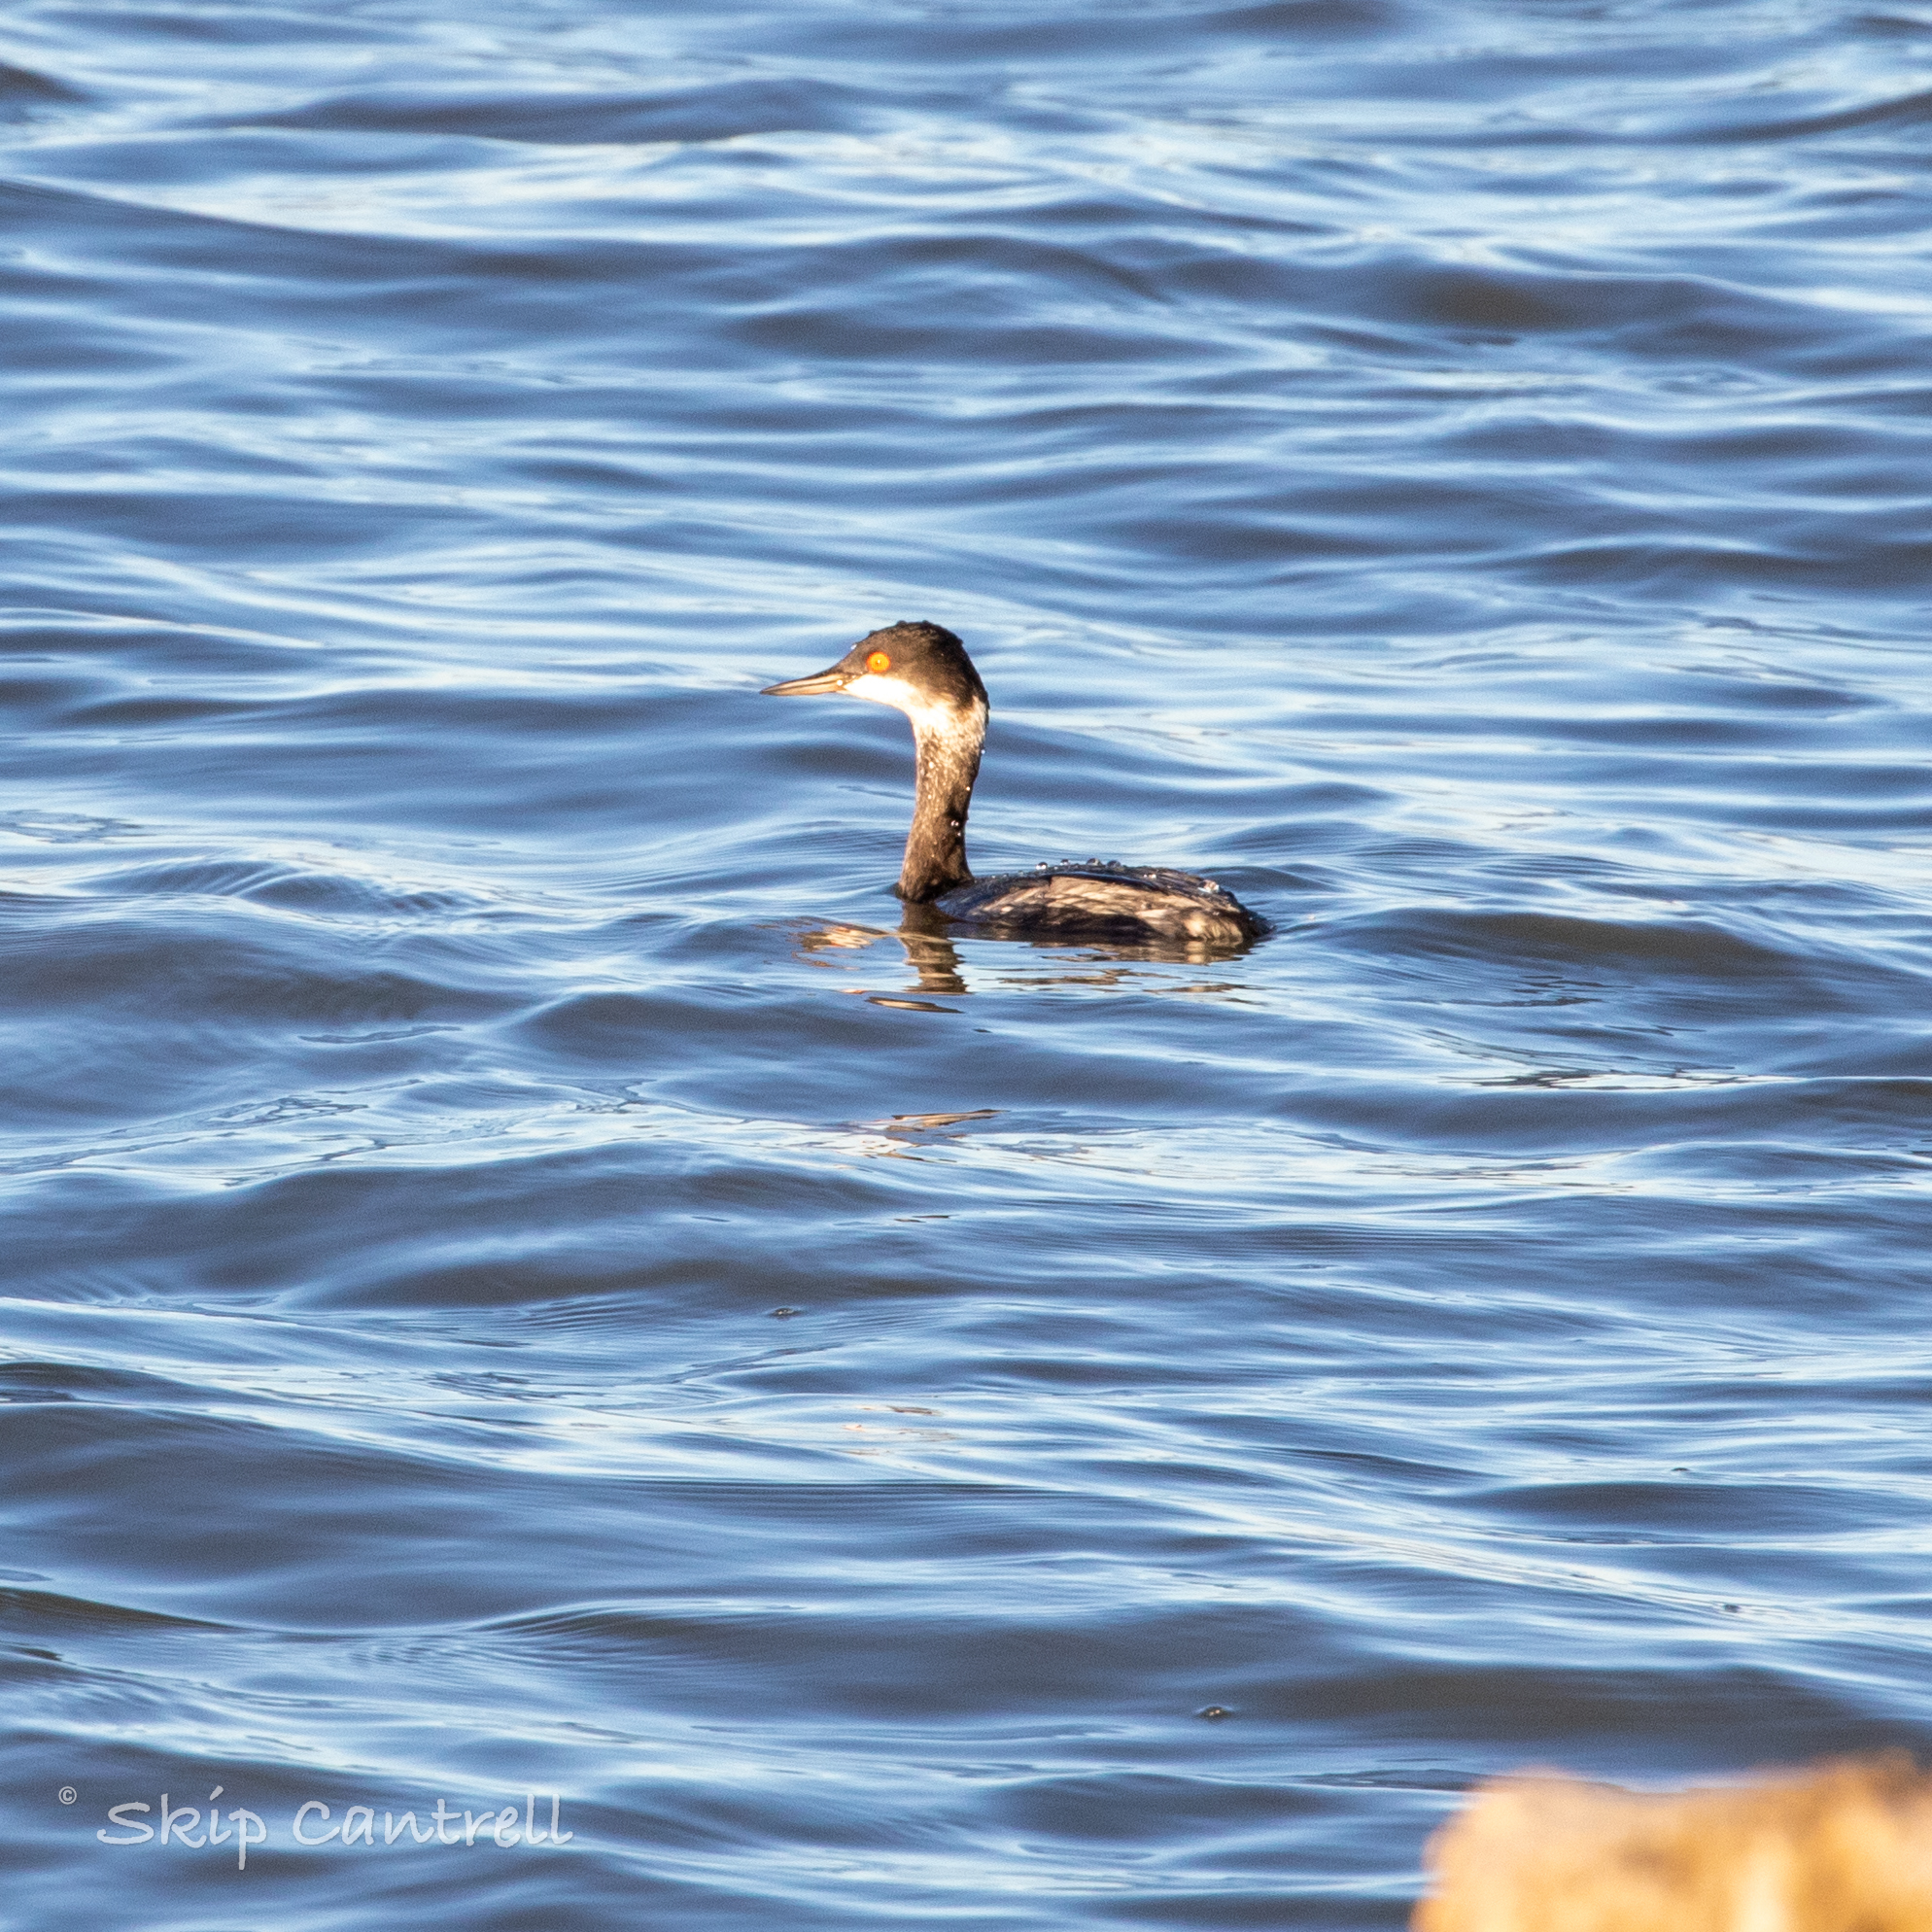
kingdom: Animalia
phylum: Chordata
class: Aves
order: Podicipediformes
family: Podicipedidae
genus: Podiceps
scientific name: Podiceps nigricollis
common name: Black-necked grebe
